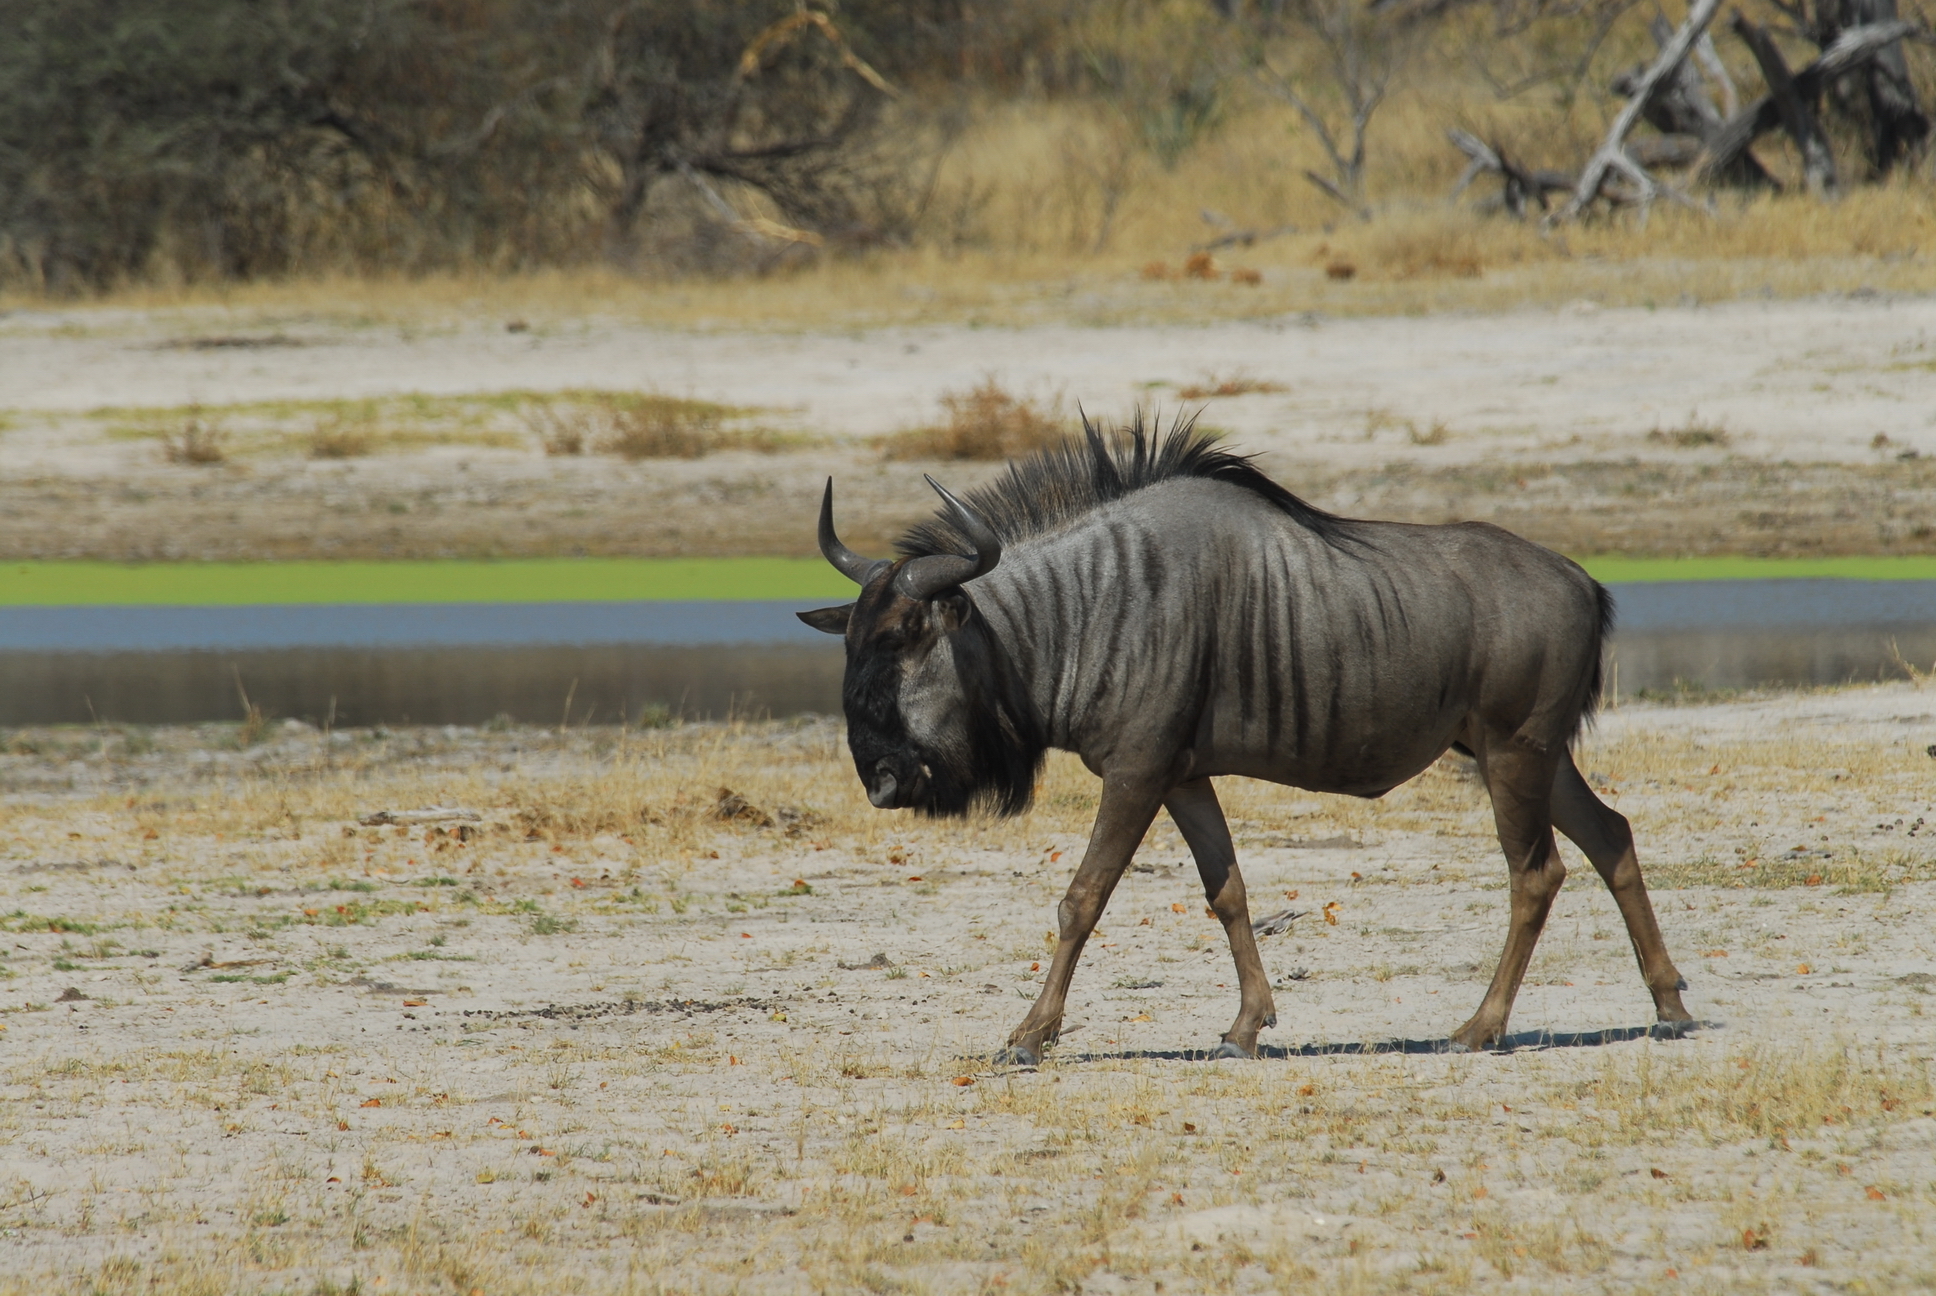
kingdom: Animalia
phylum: Chordata
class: Mammalia
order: Artiodactyla
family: Bovidae
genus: Connochaetes
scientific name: Connochaetes taurinus
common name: Blue wildebeest
